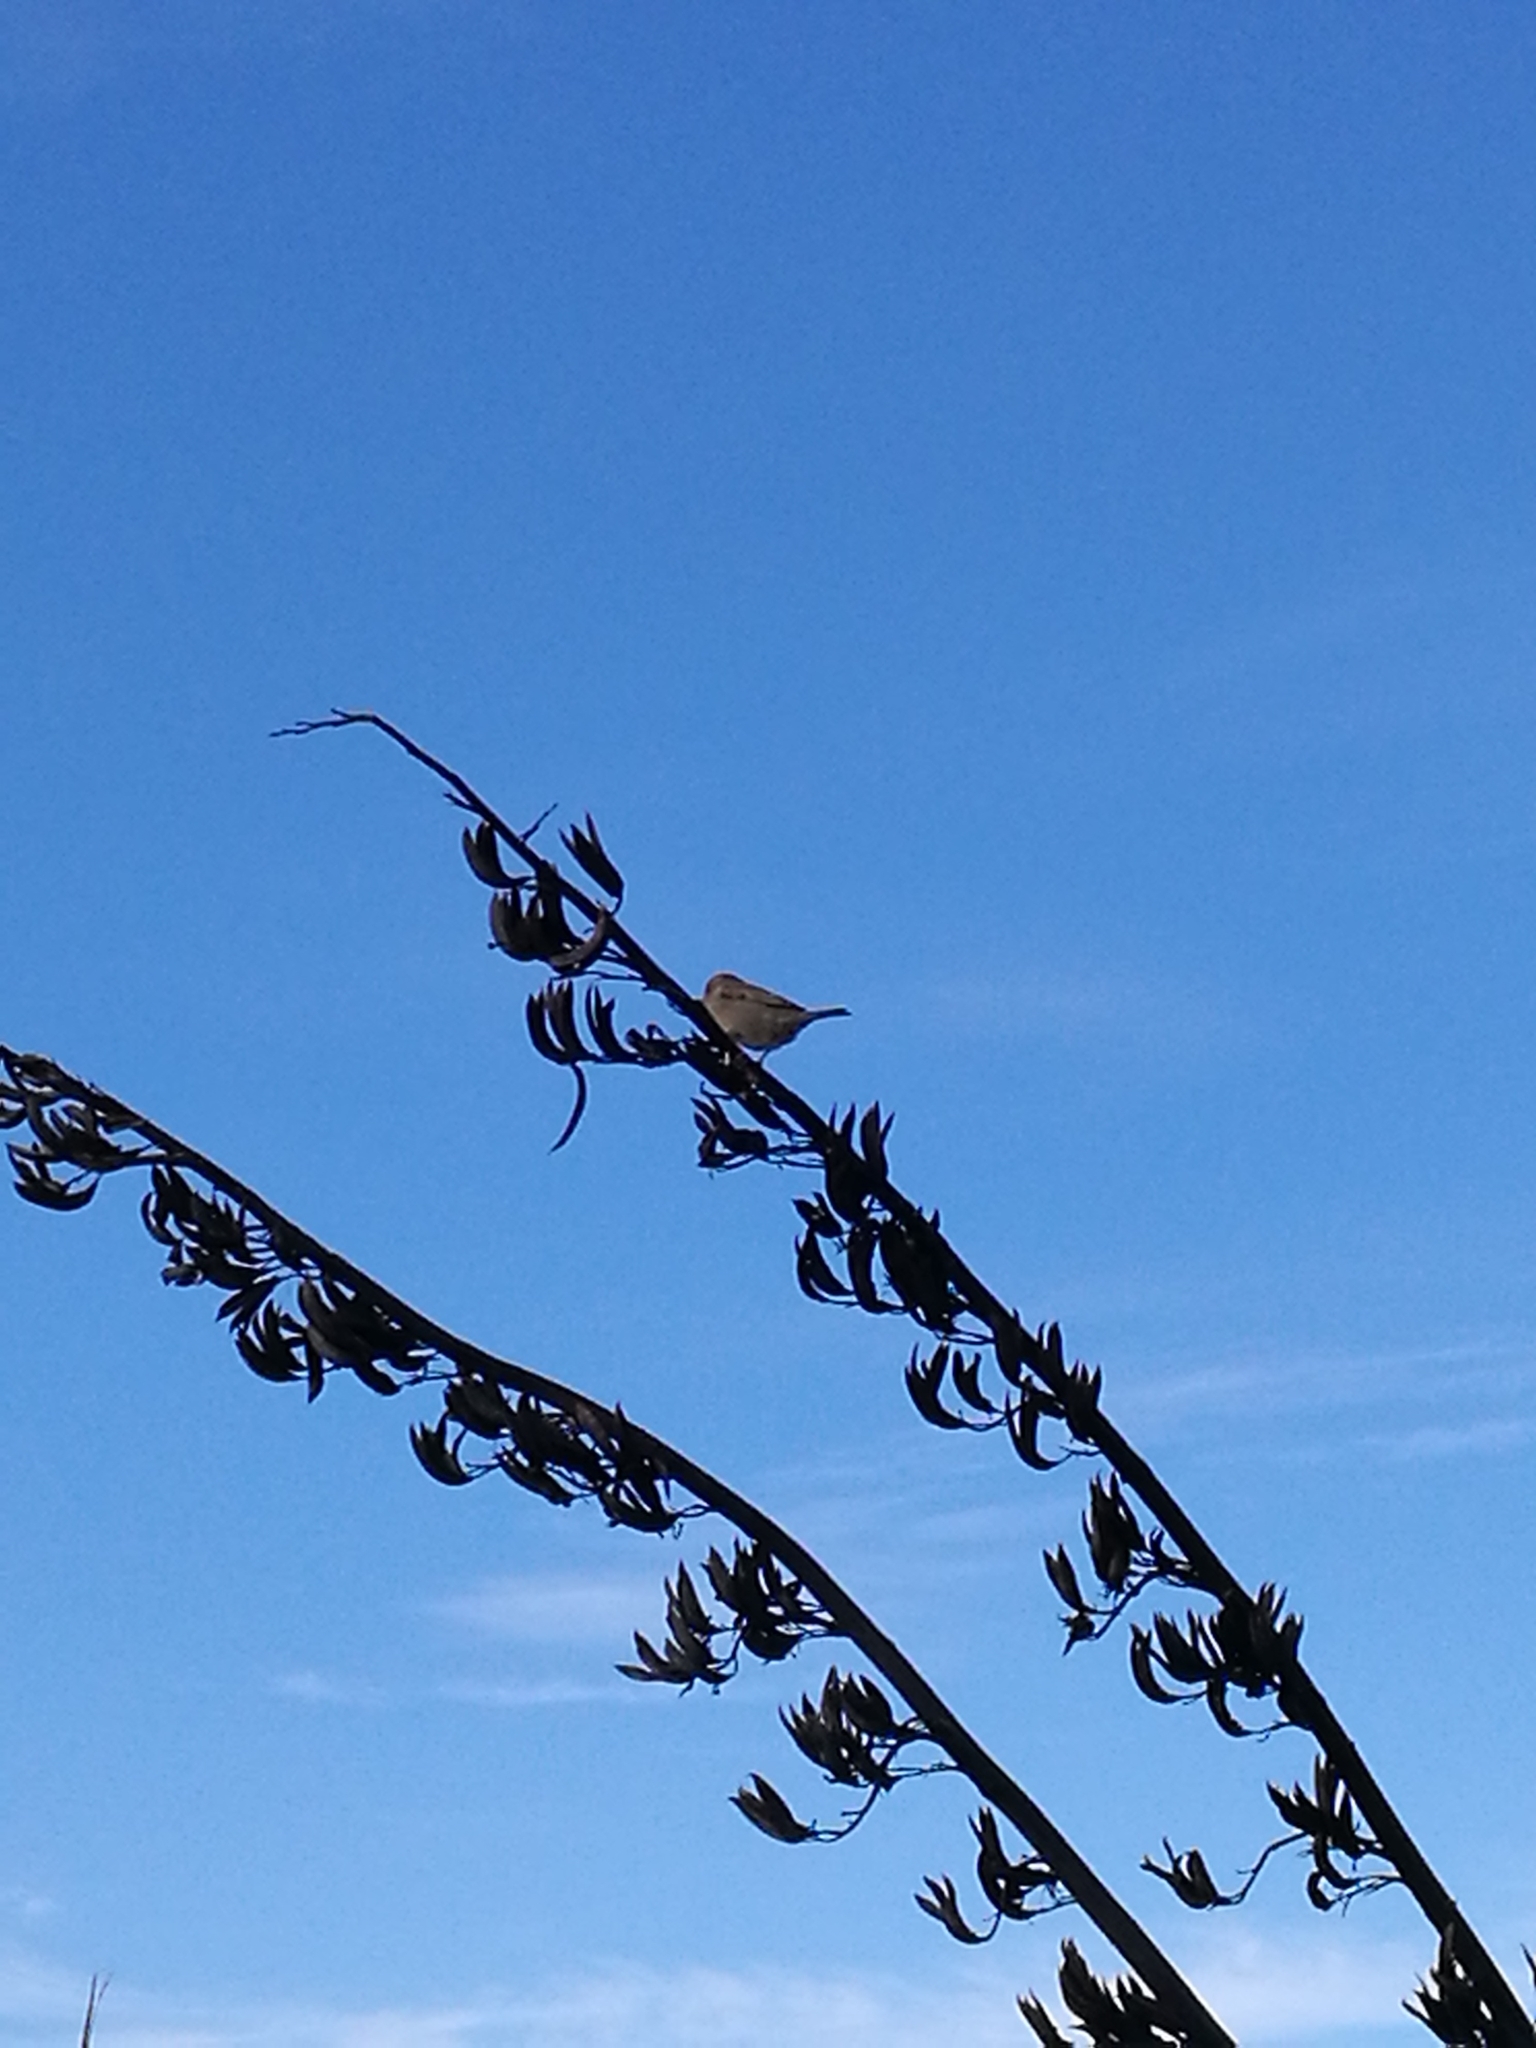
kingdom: Animalia
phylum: Chordata
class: Aves
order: Passeriformes
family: Passeridae
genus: Passer
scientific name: Passer domesticus
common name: House sparrow
